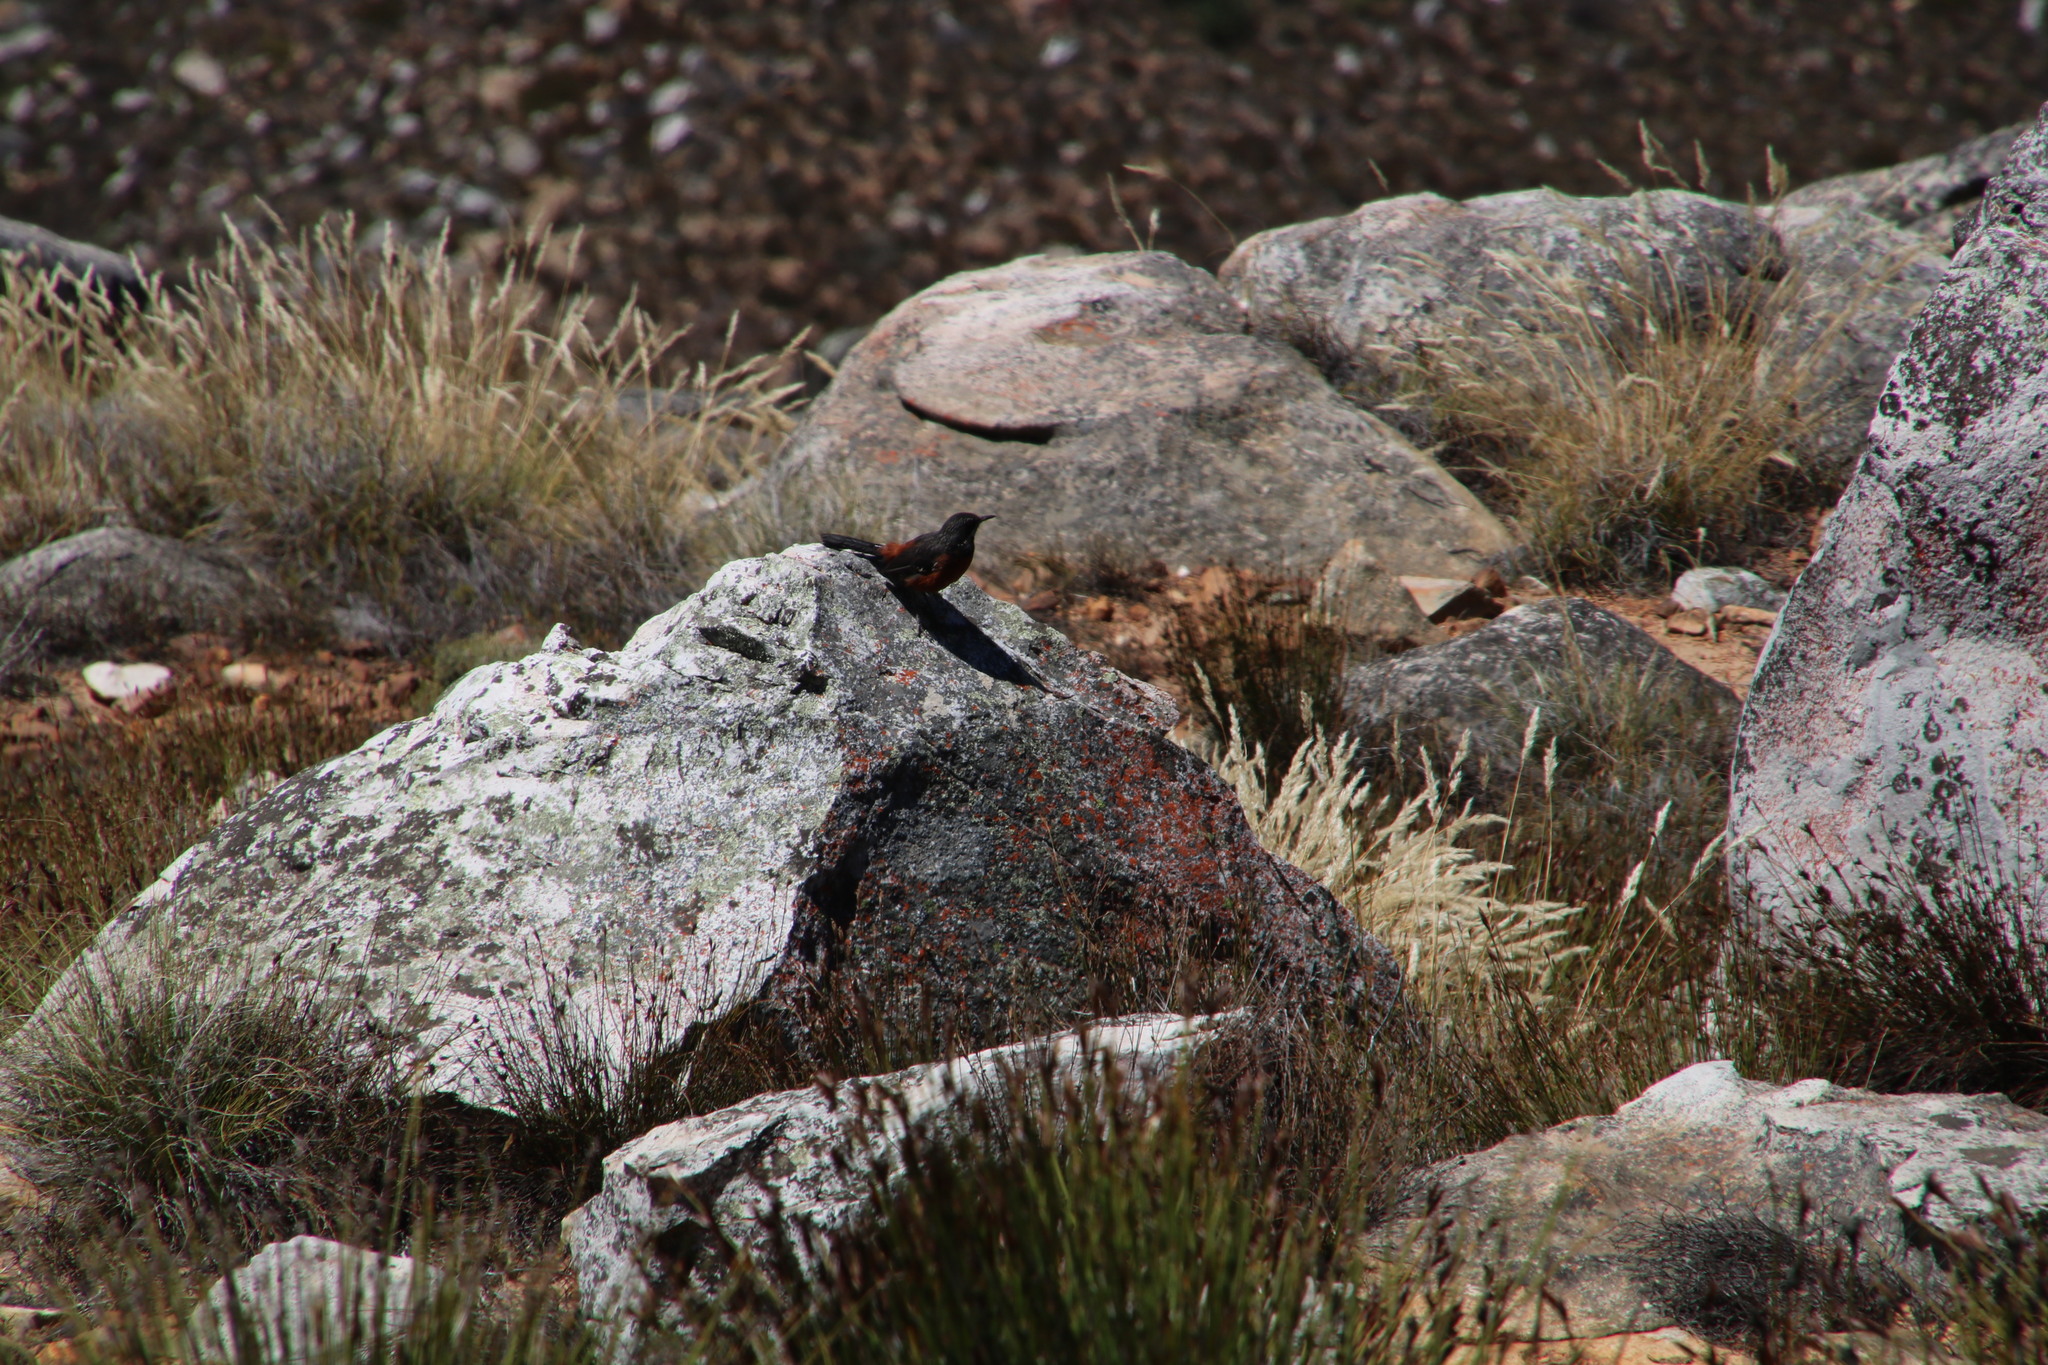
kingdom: Animalia
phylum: Chordata
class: Aves
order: Passeriformes
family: Chaetopidae
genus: Chaetops
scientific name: Chaetops frenatus
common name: Cape rockjumper
